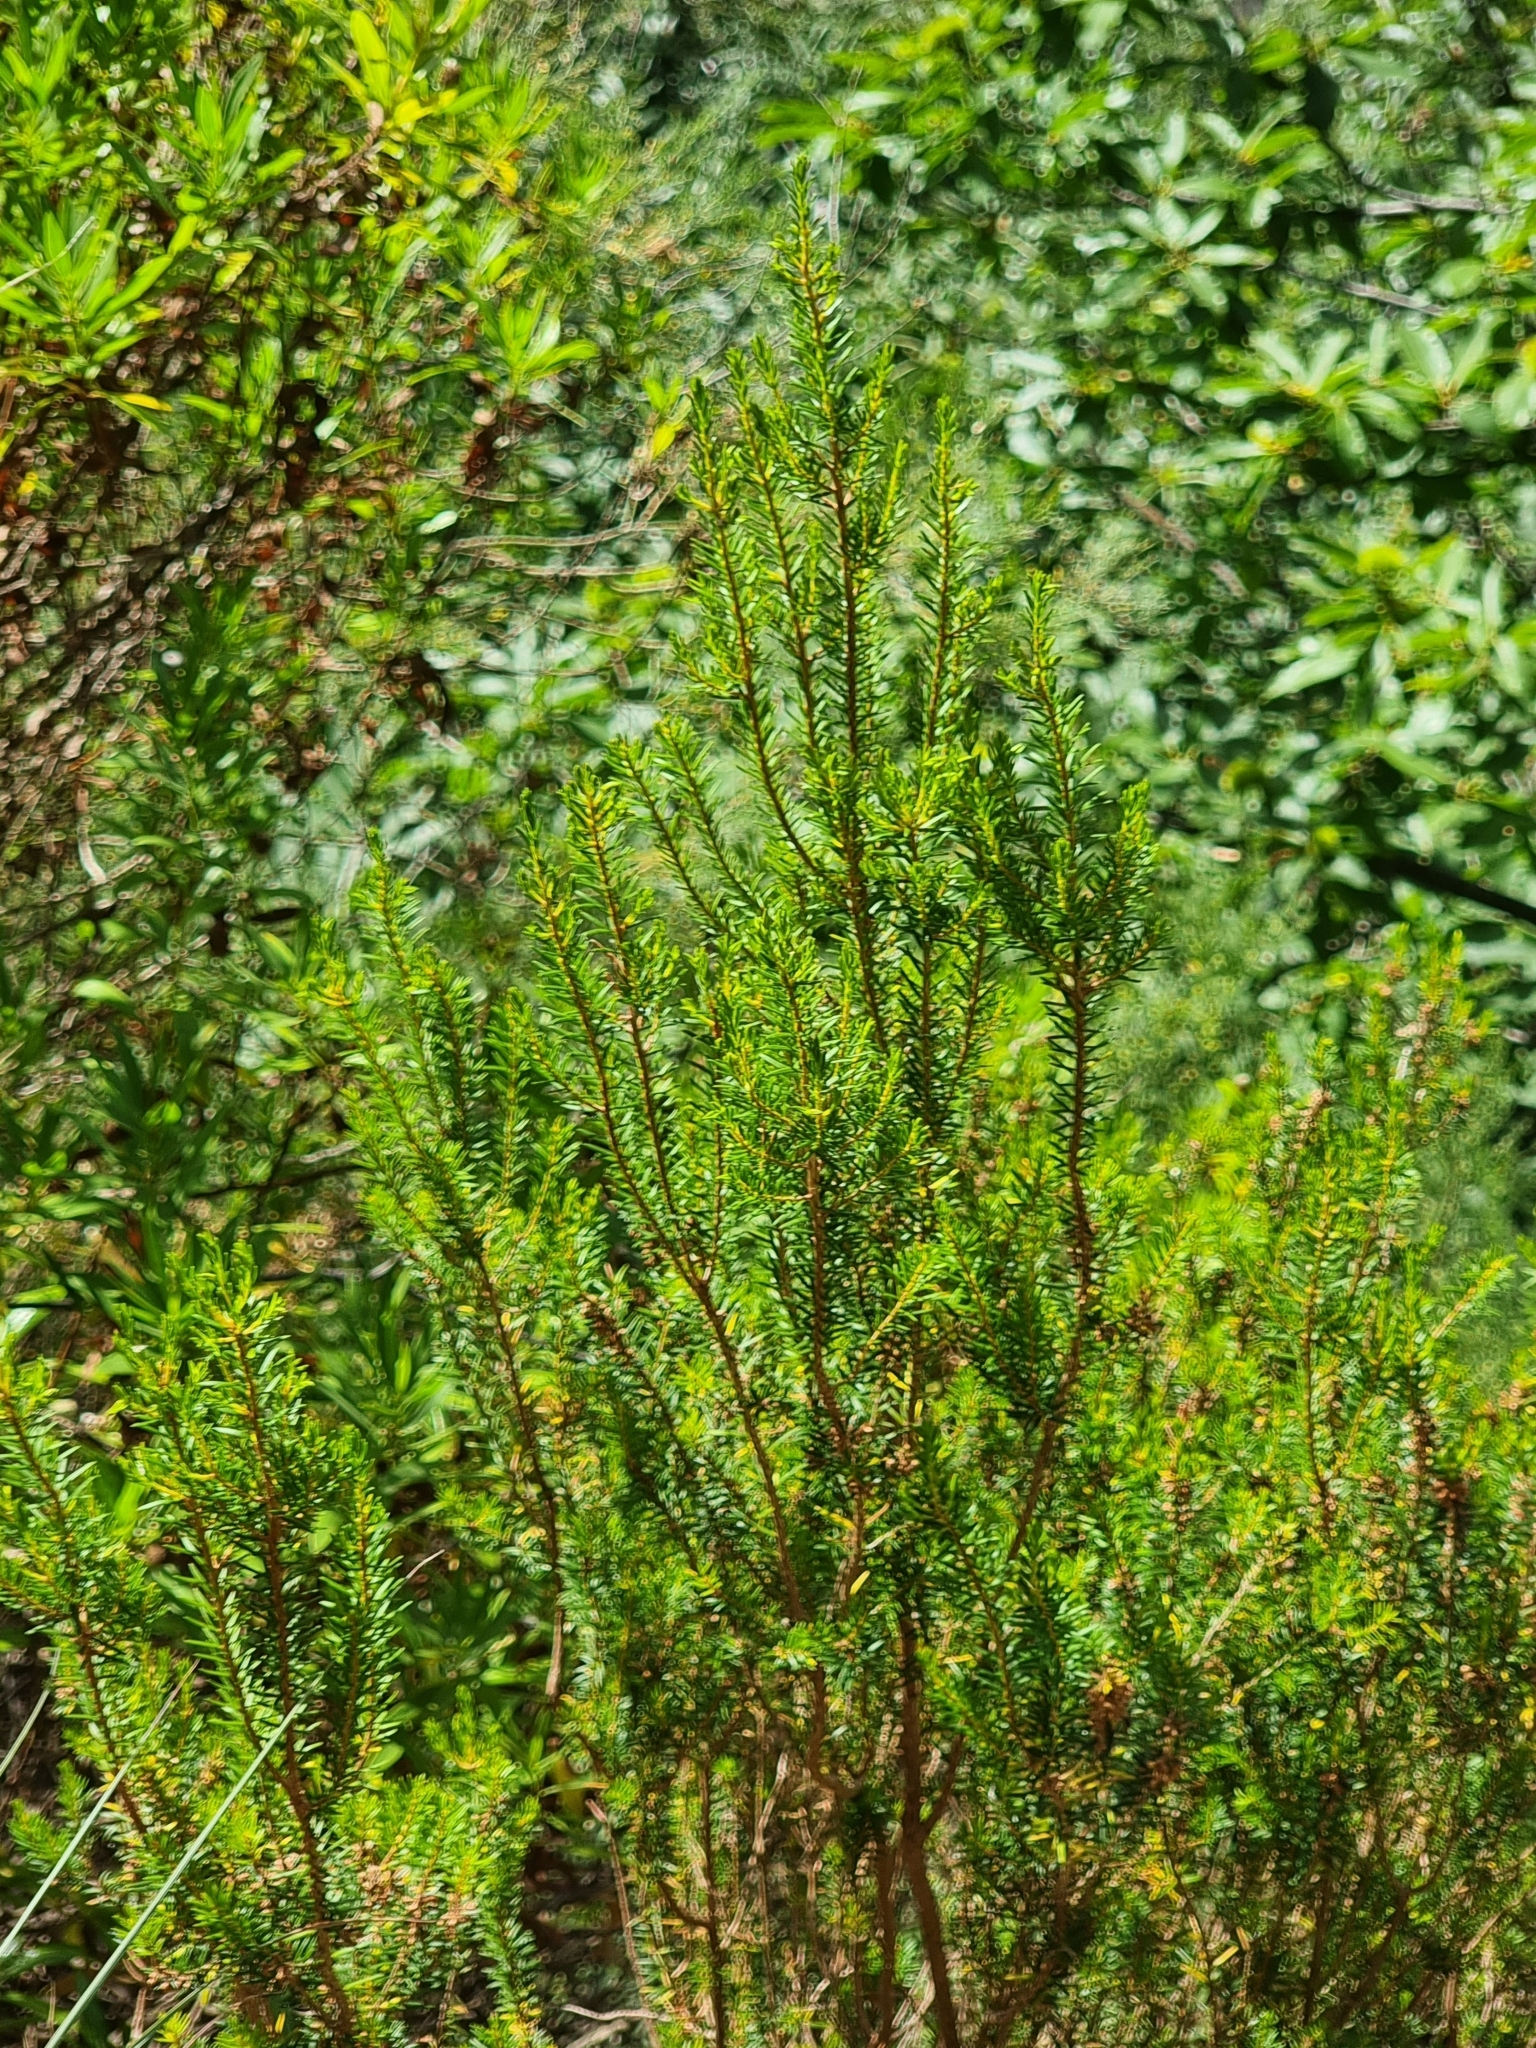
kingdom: Plantae
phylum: Tracheophyta
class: Magnoliopsida
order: Ericales
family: Ericaceae
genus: Erica
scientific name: Erica platycodon
